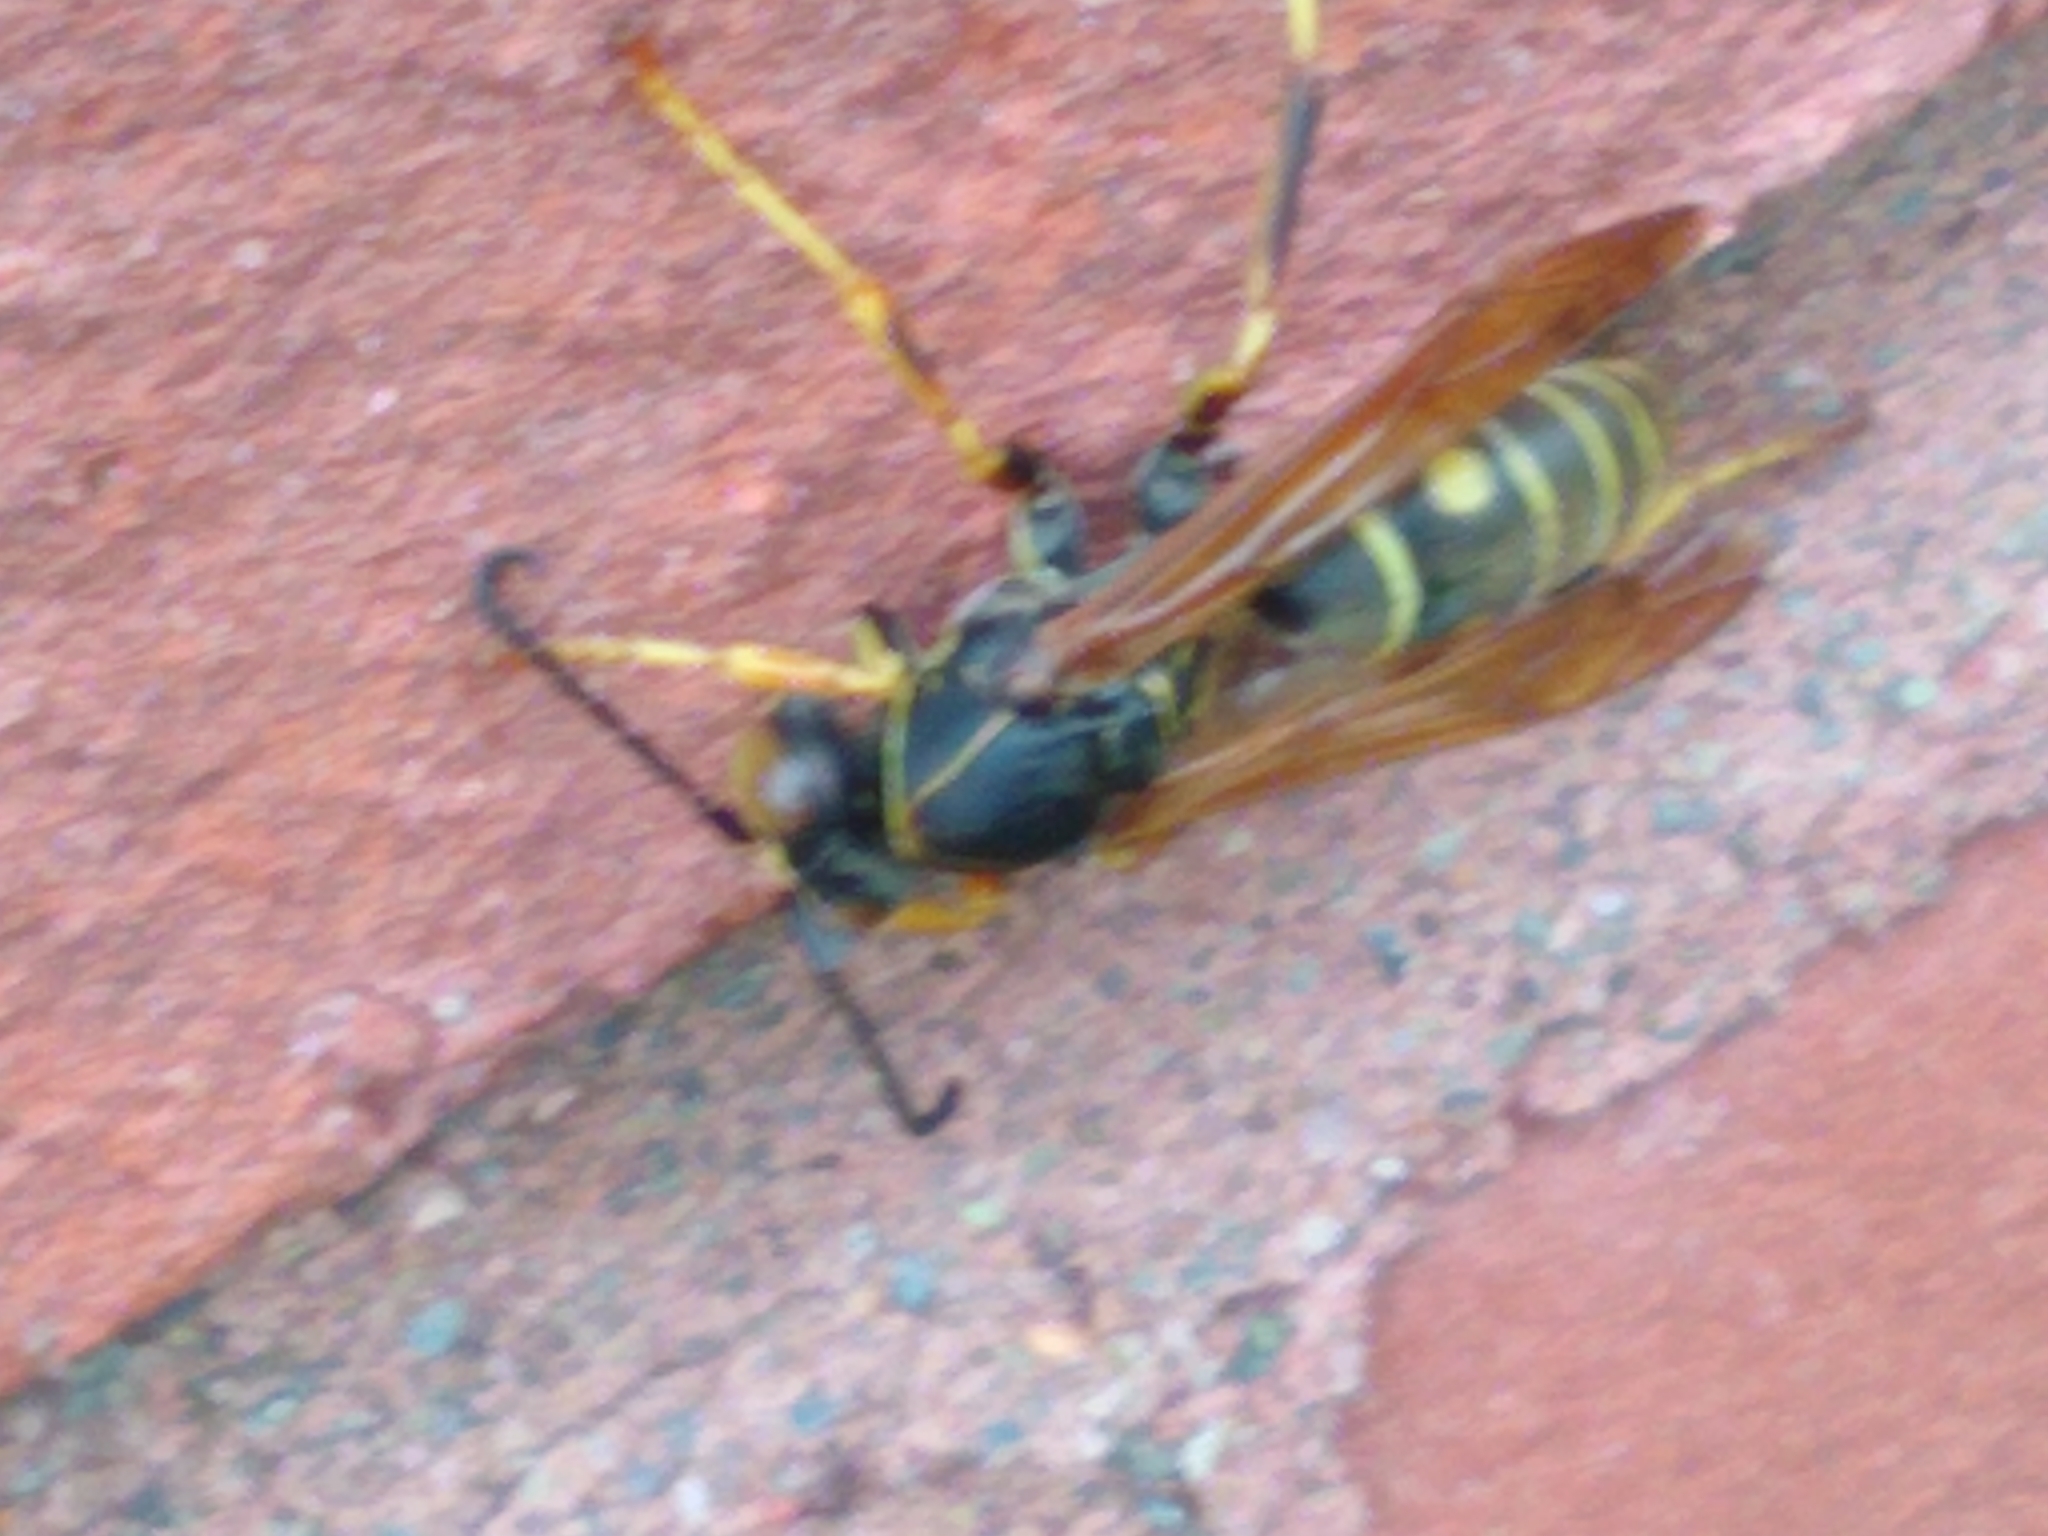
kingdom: Animalia
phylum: Arthropoda
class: Insecta
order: Hymenoptera
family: Eumenidae
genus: Polistes
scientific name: Polistes fuscatus
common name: Dark paper wasp
